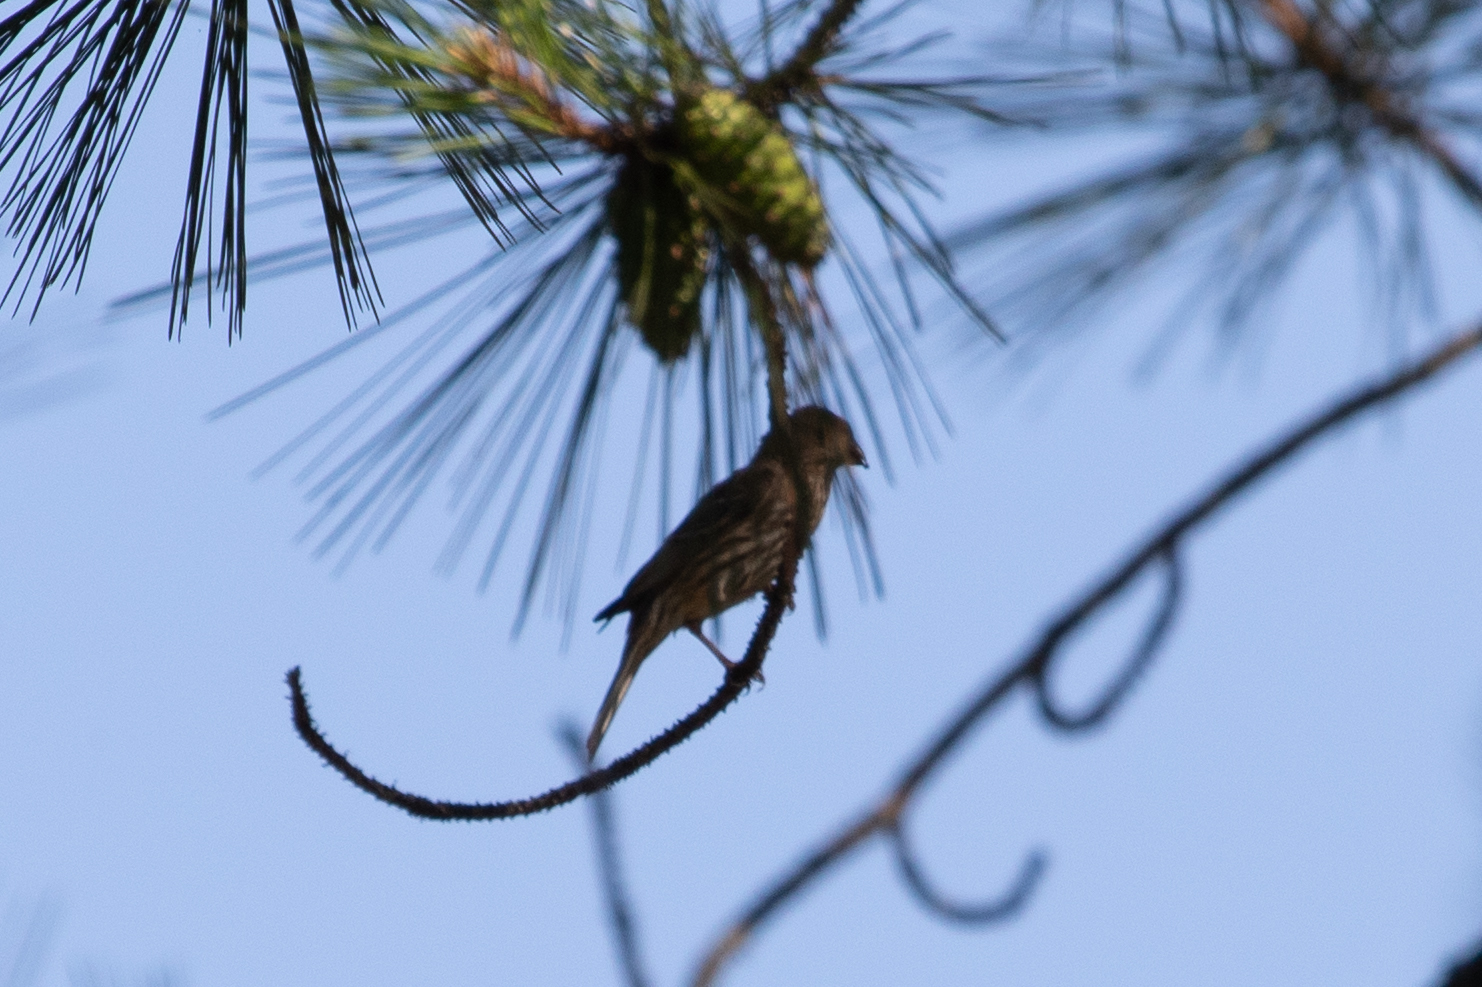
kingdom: Animalia
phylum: Chordata
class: Aves
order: Passeriformes
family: Fringillidae
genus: Haemorhous
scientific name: Haemorhous mexicanus
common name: House finch
